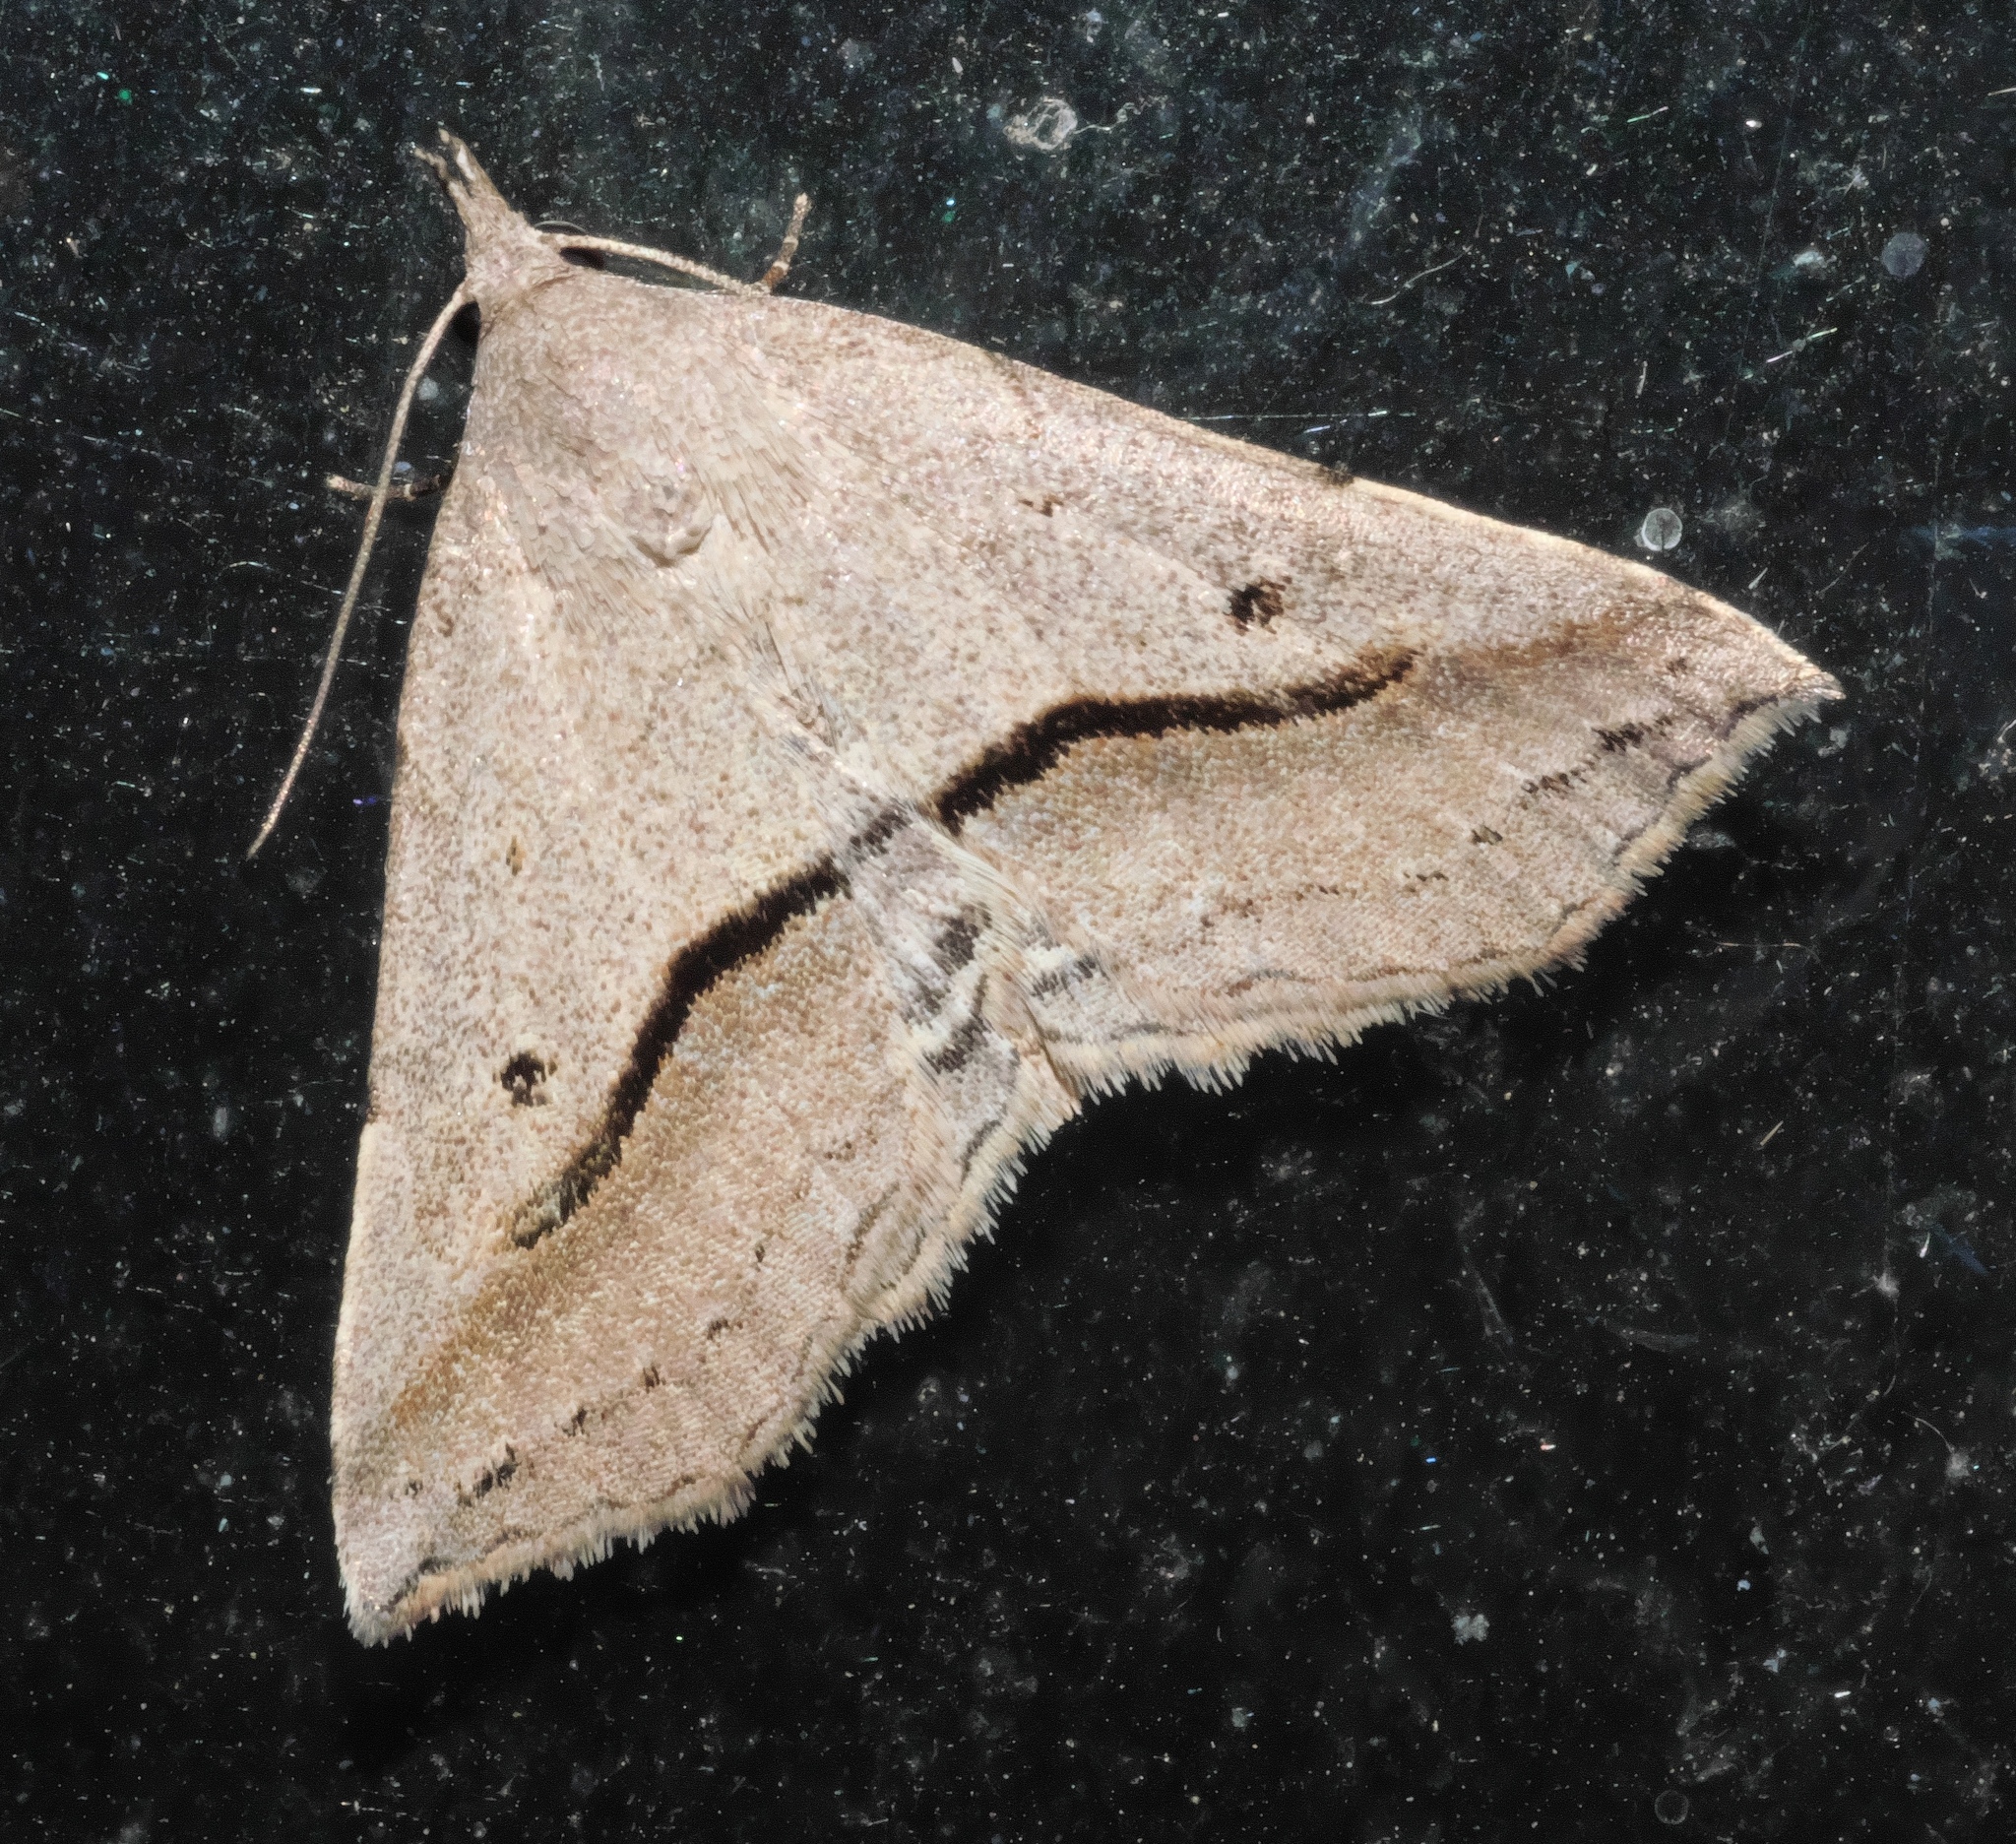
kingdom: Animalia
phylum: Arthropoda
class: Insecta
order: Lepidoptera
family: Erebidae
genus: Spargaloma
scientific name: Spargaloma perditalis
